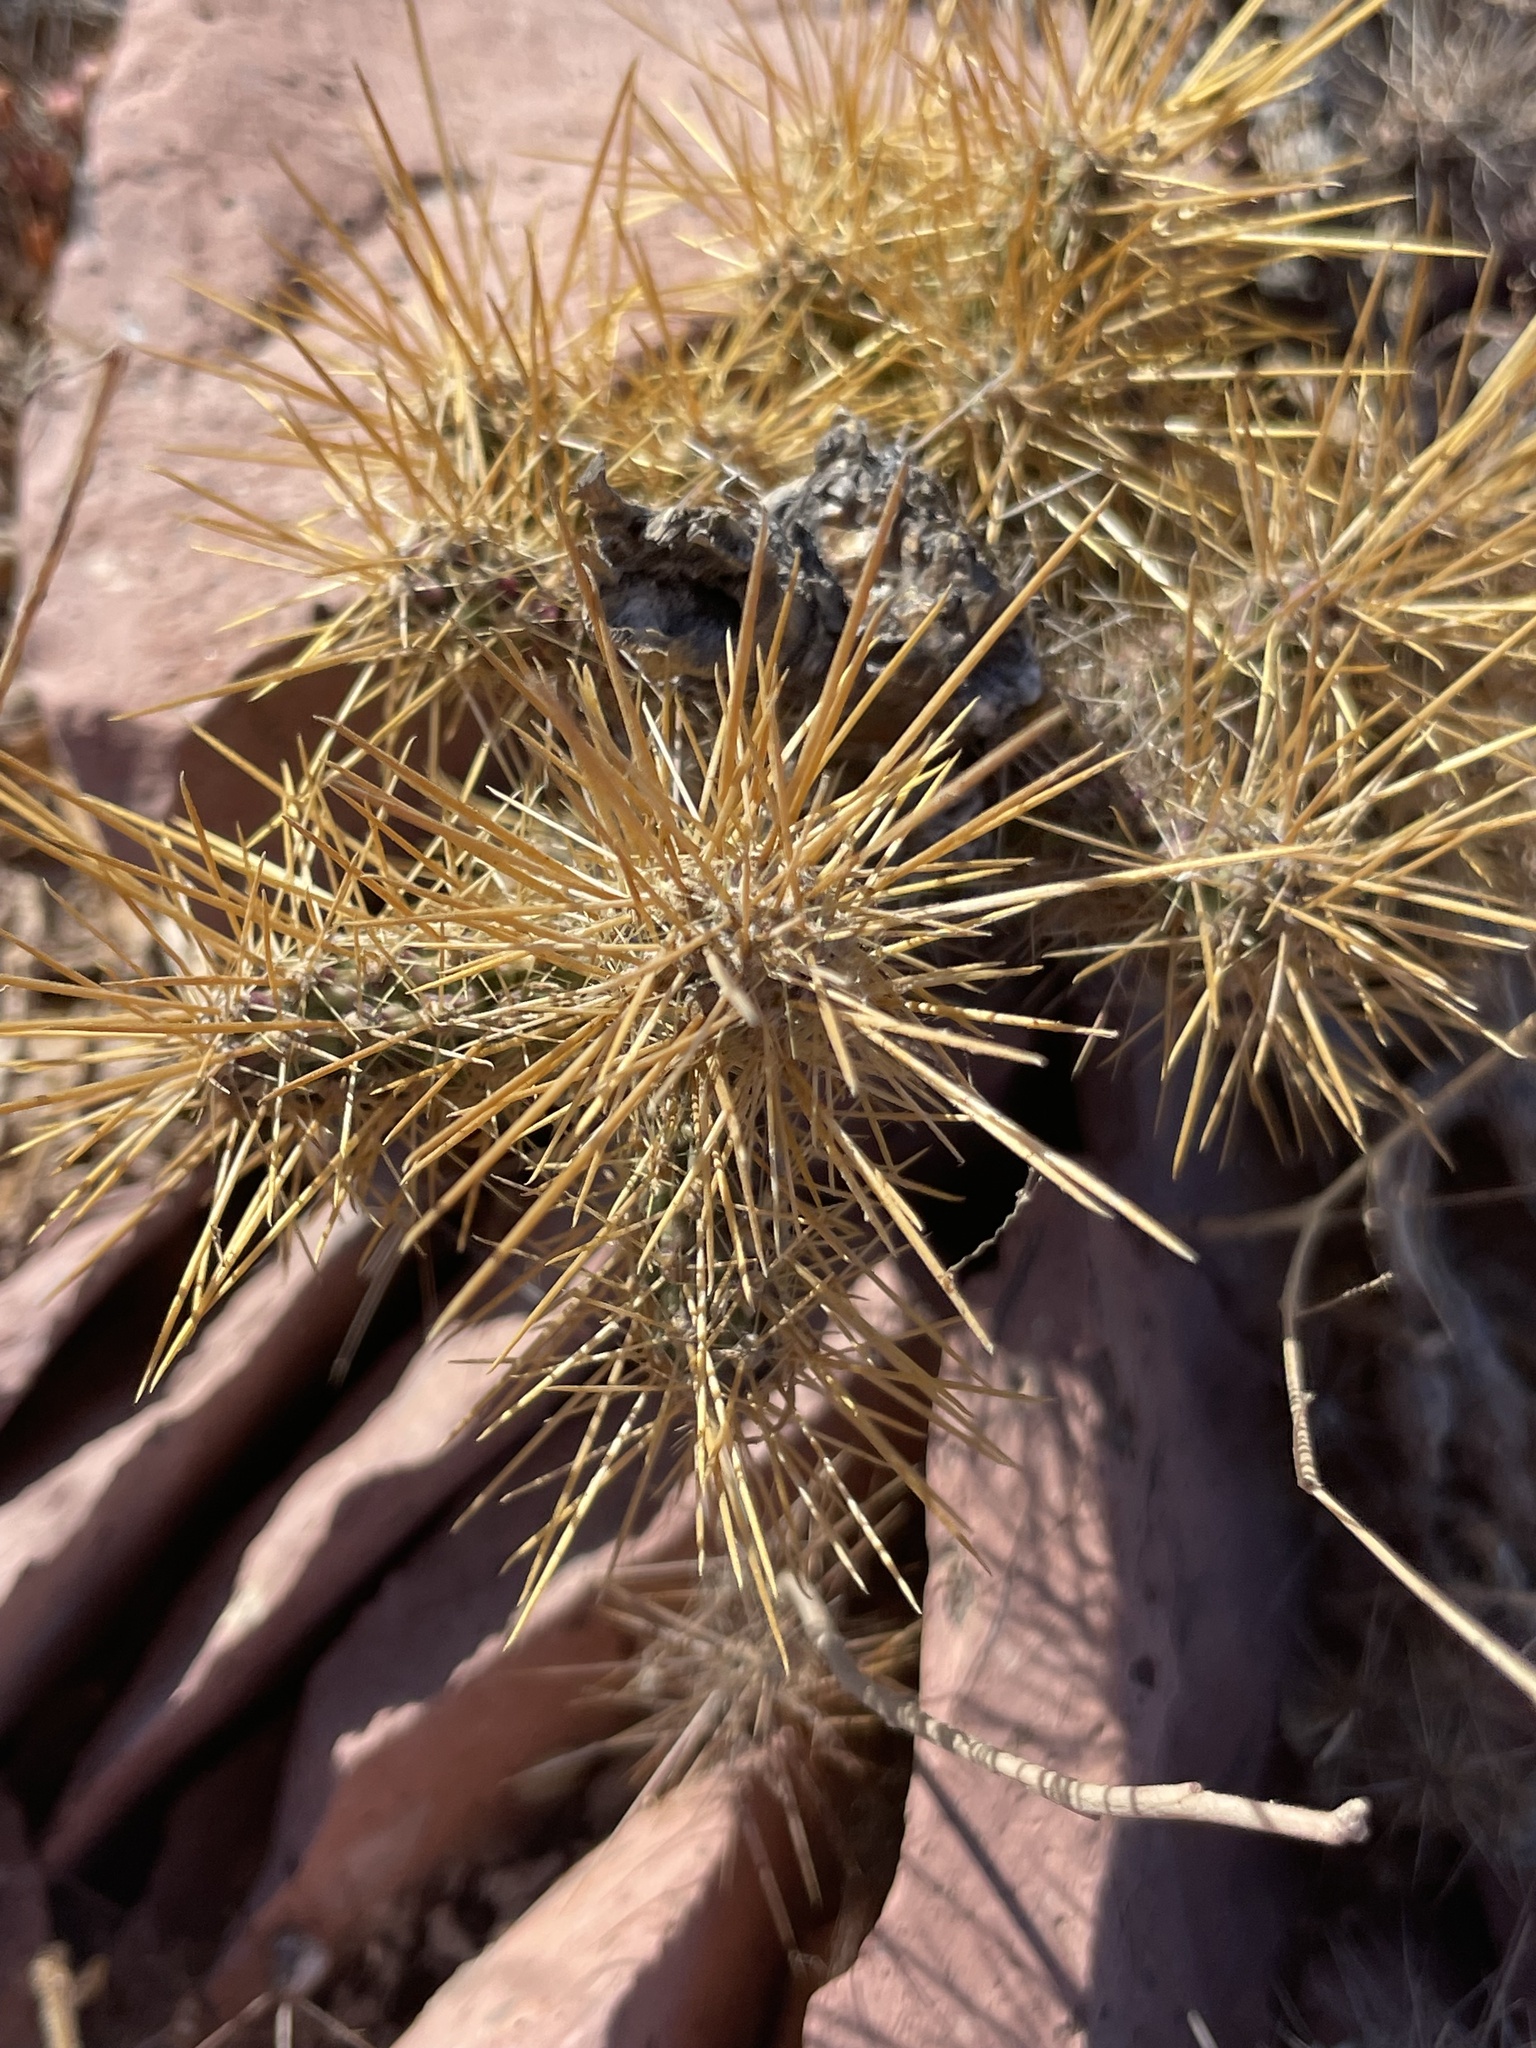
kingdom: Plantae
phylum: Tracheophyta
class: Magnoliopsida
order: Caryophyllales
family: Cactaceae
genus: Cylindropuntia
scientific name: Cylindropuntia alcahes
